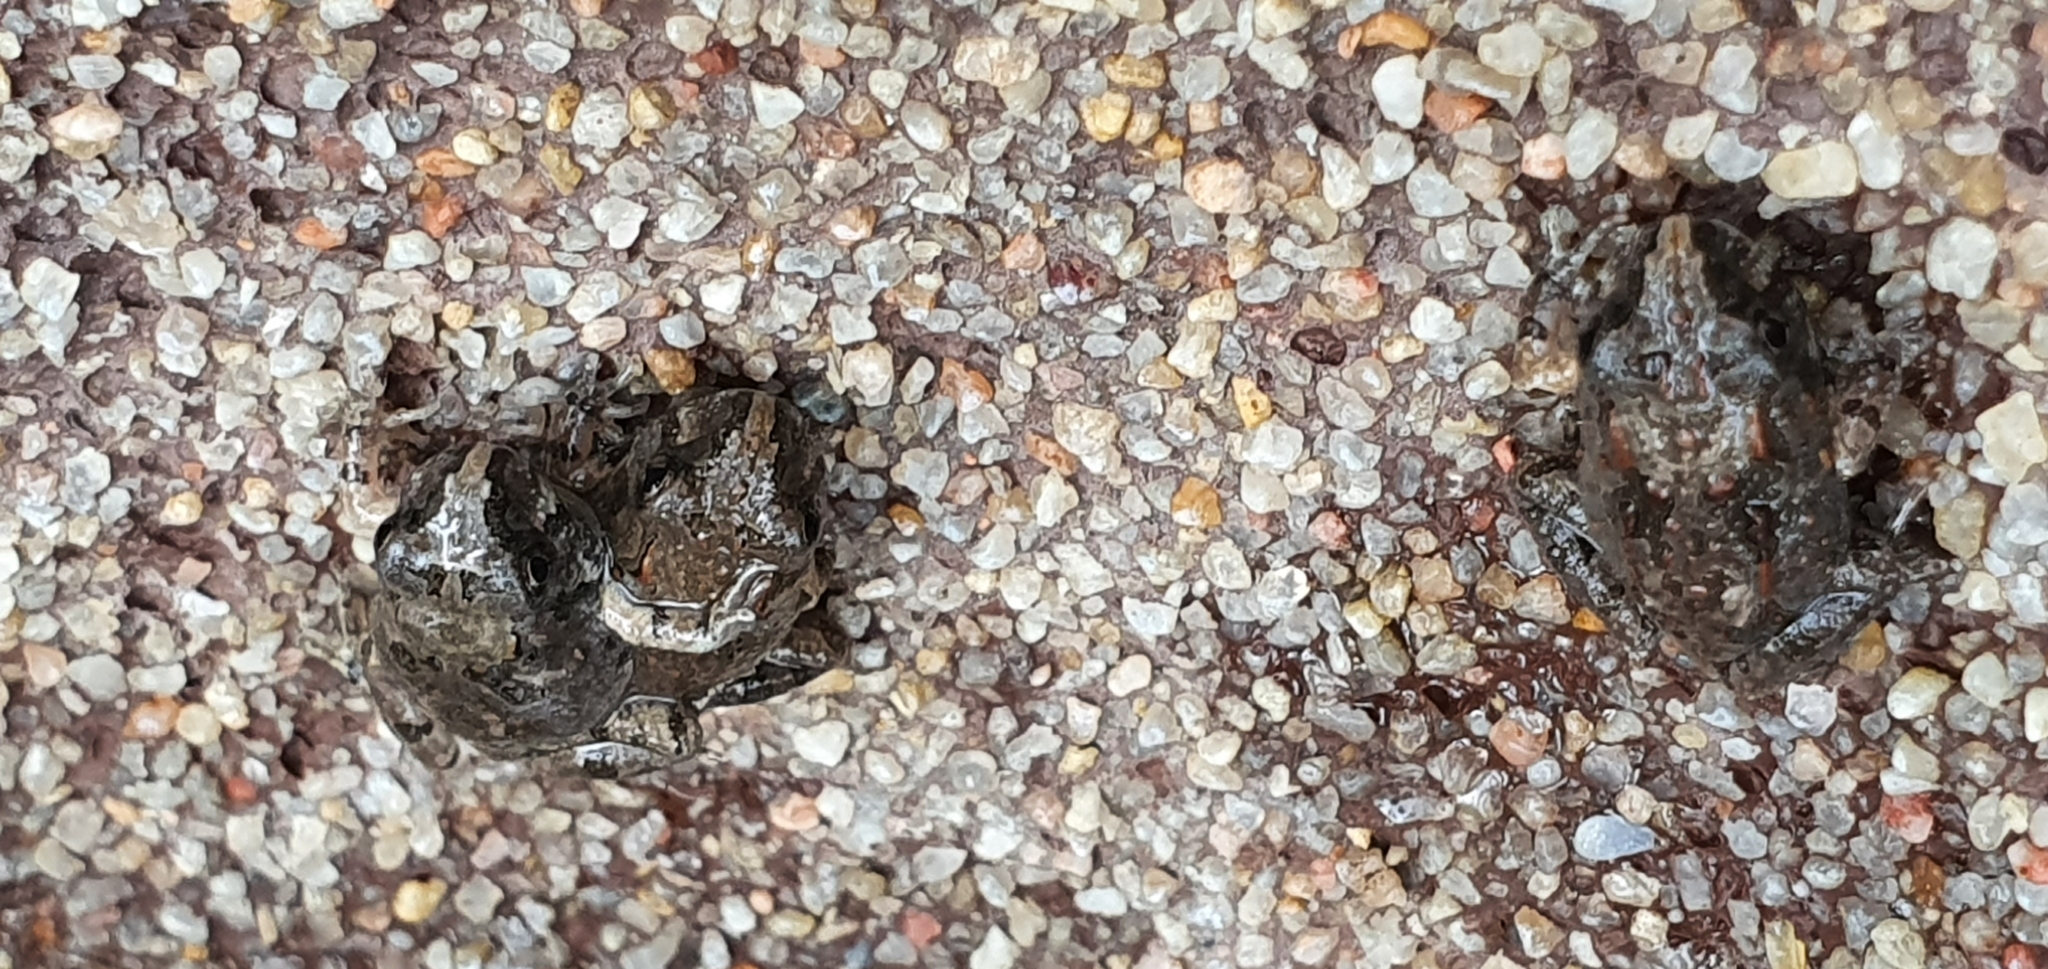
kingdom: Animalia
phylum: Chordata
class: Amphibia
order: Anura
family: Limnodynastidae
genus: Platyplectrum
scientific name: Platyplectrum ornatum
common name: Ornate burrowing frog
